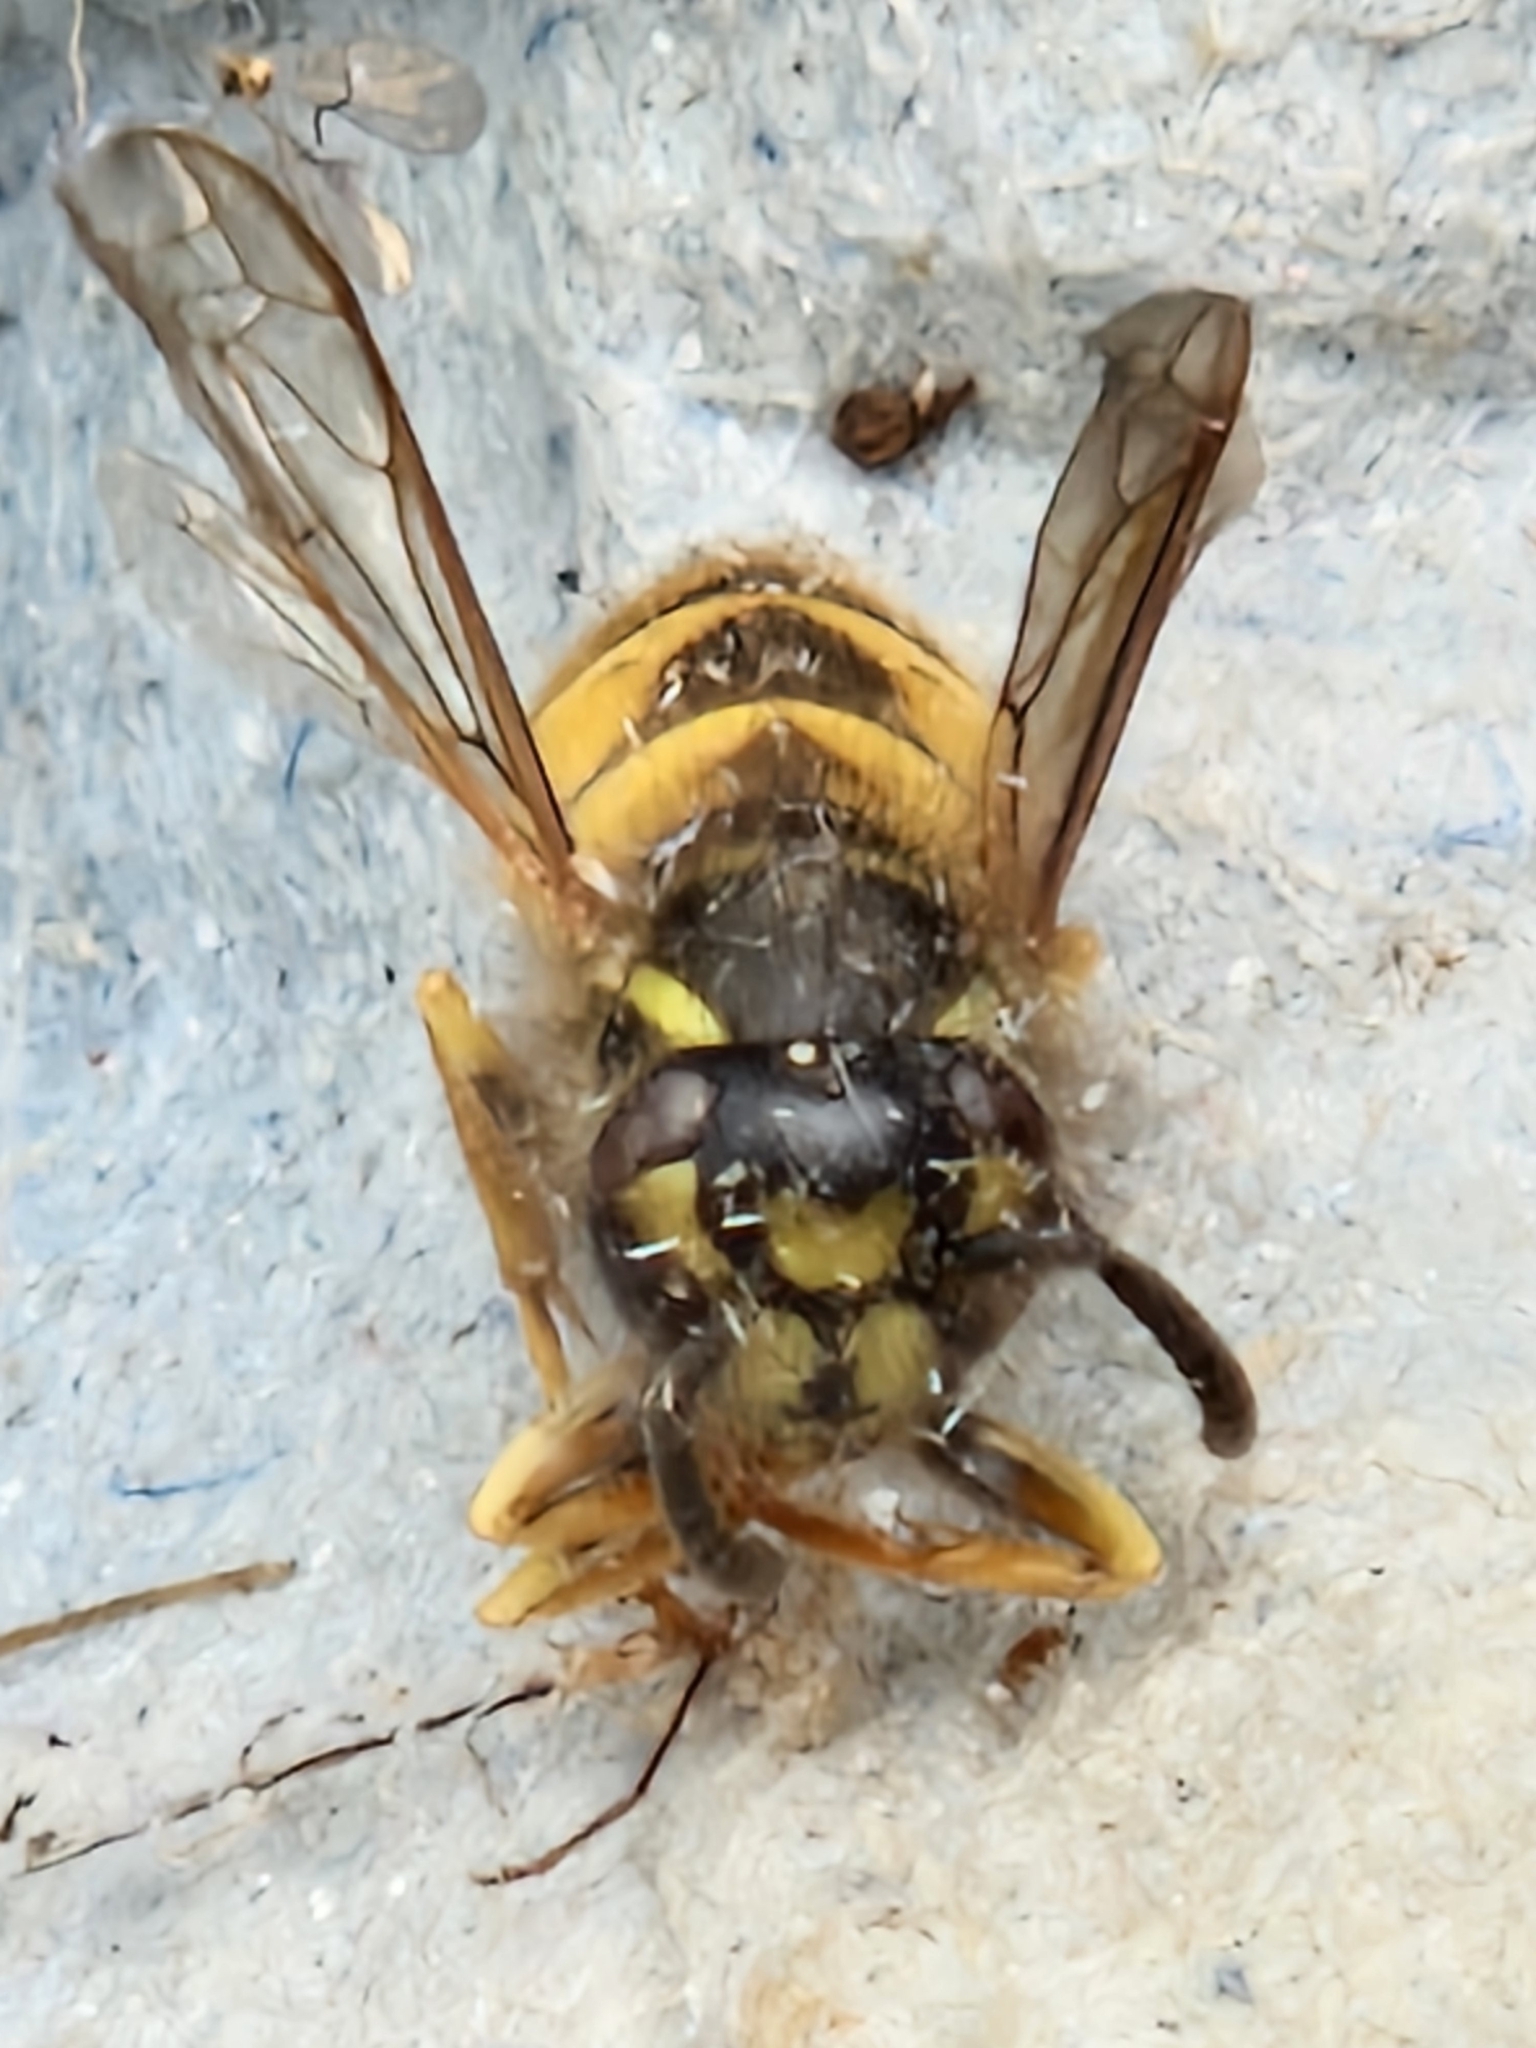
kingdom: Animalia
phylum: Arthropoda
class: Insecta
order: Hymenoptera
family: Vespidae
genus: Vespula
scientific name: Vespula vulgaris
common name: Common wasp
